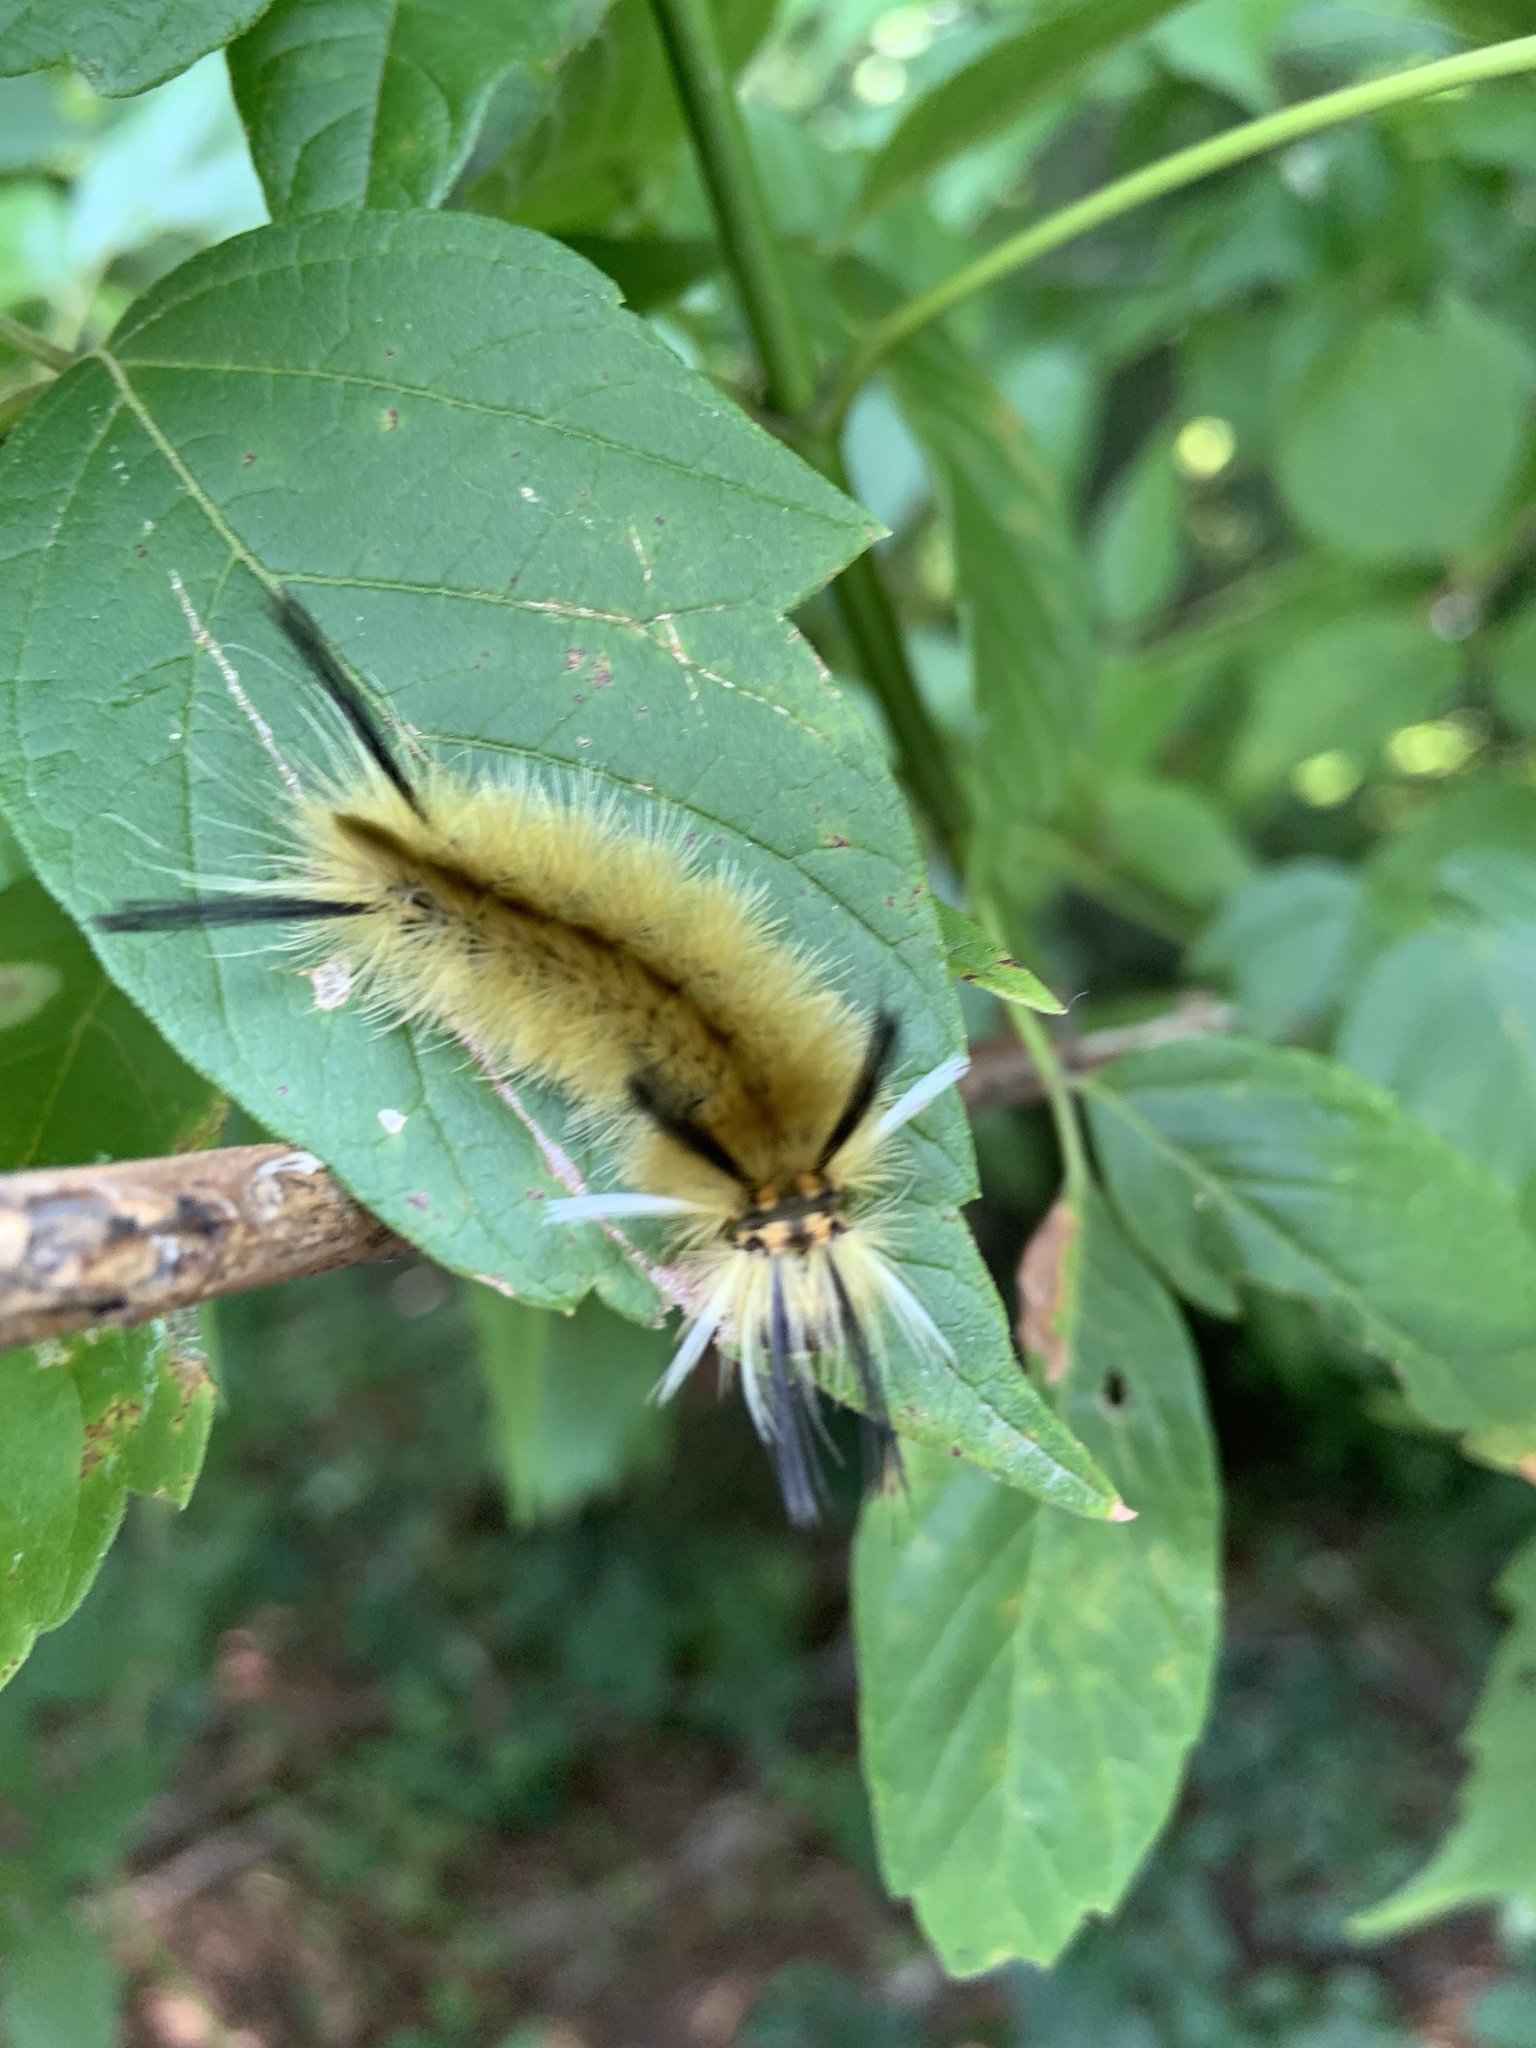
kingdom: Animalia
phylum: Arthropoda
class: Insecta
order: Lepidoptera
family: Erebidae
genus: Halysidota
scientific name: Halysidota tessellaris
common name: Banded tussock moth
